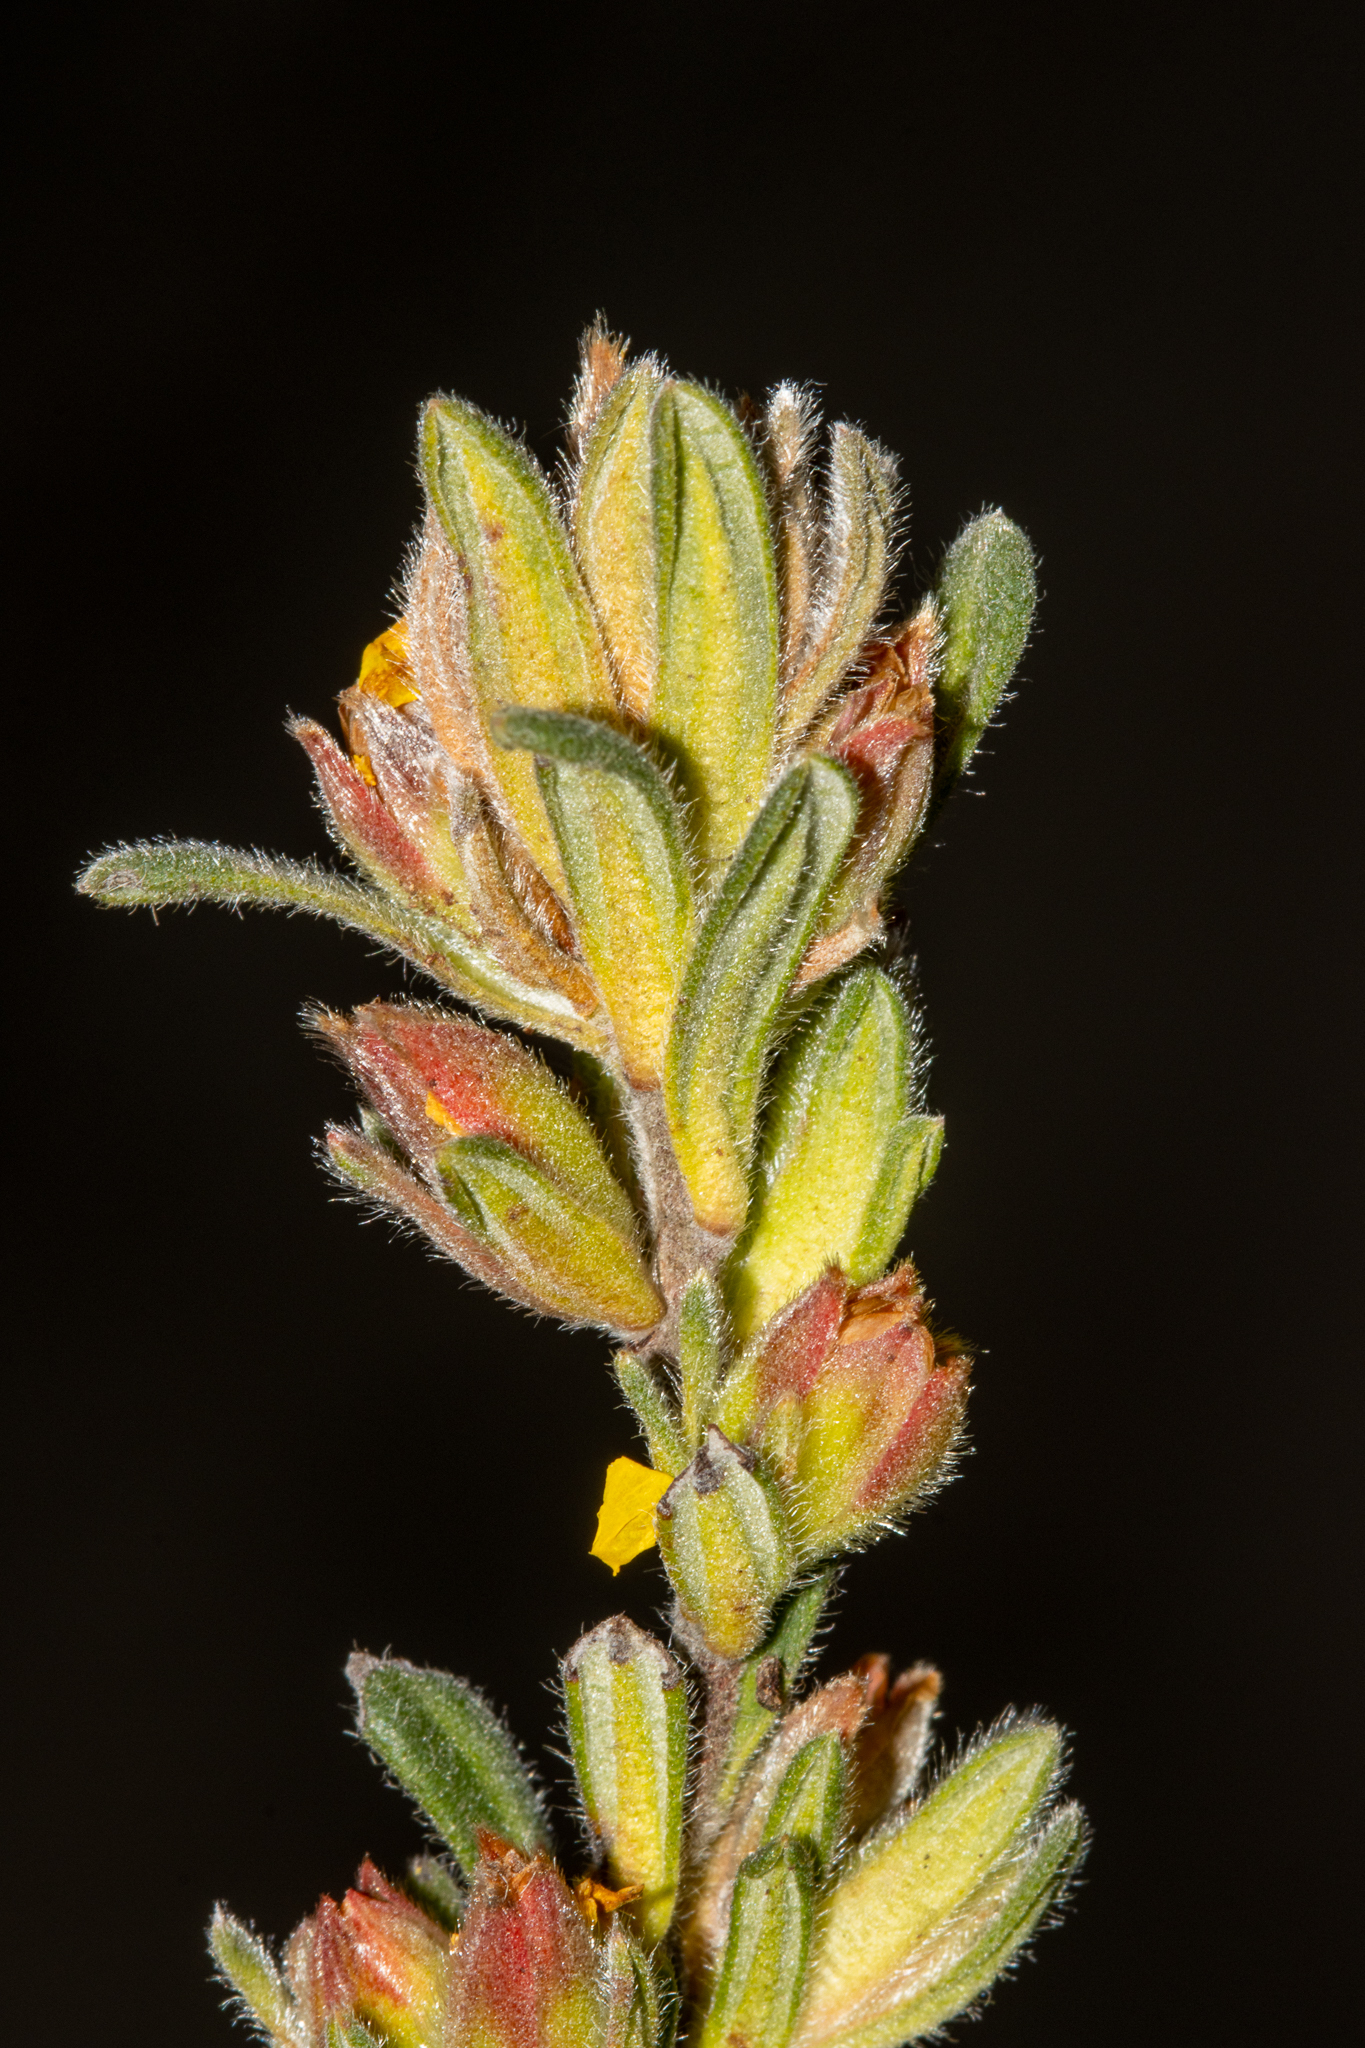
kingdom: Plantae
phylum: Tracheophyta
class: Magnoliopsida
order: Dilleniales
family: Dilleniaceae
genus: Hibbertia
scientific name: Hibbertia sericea
